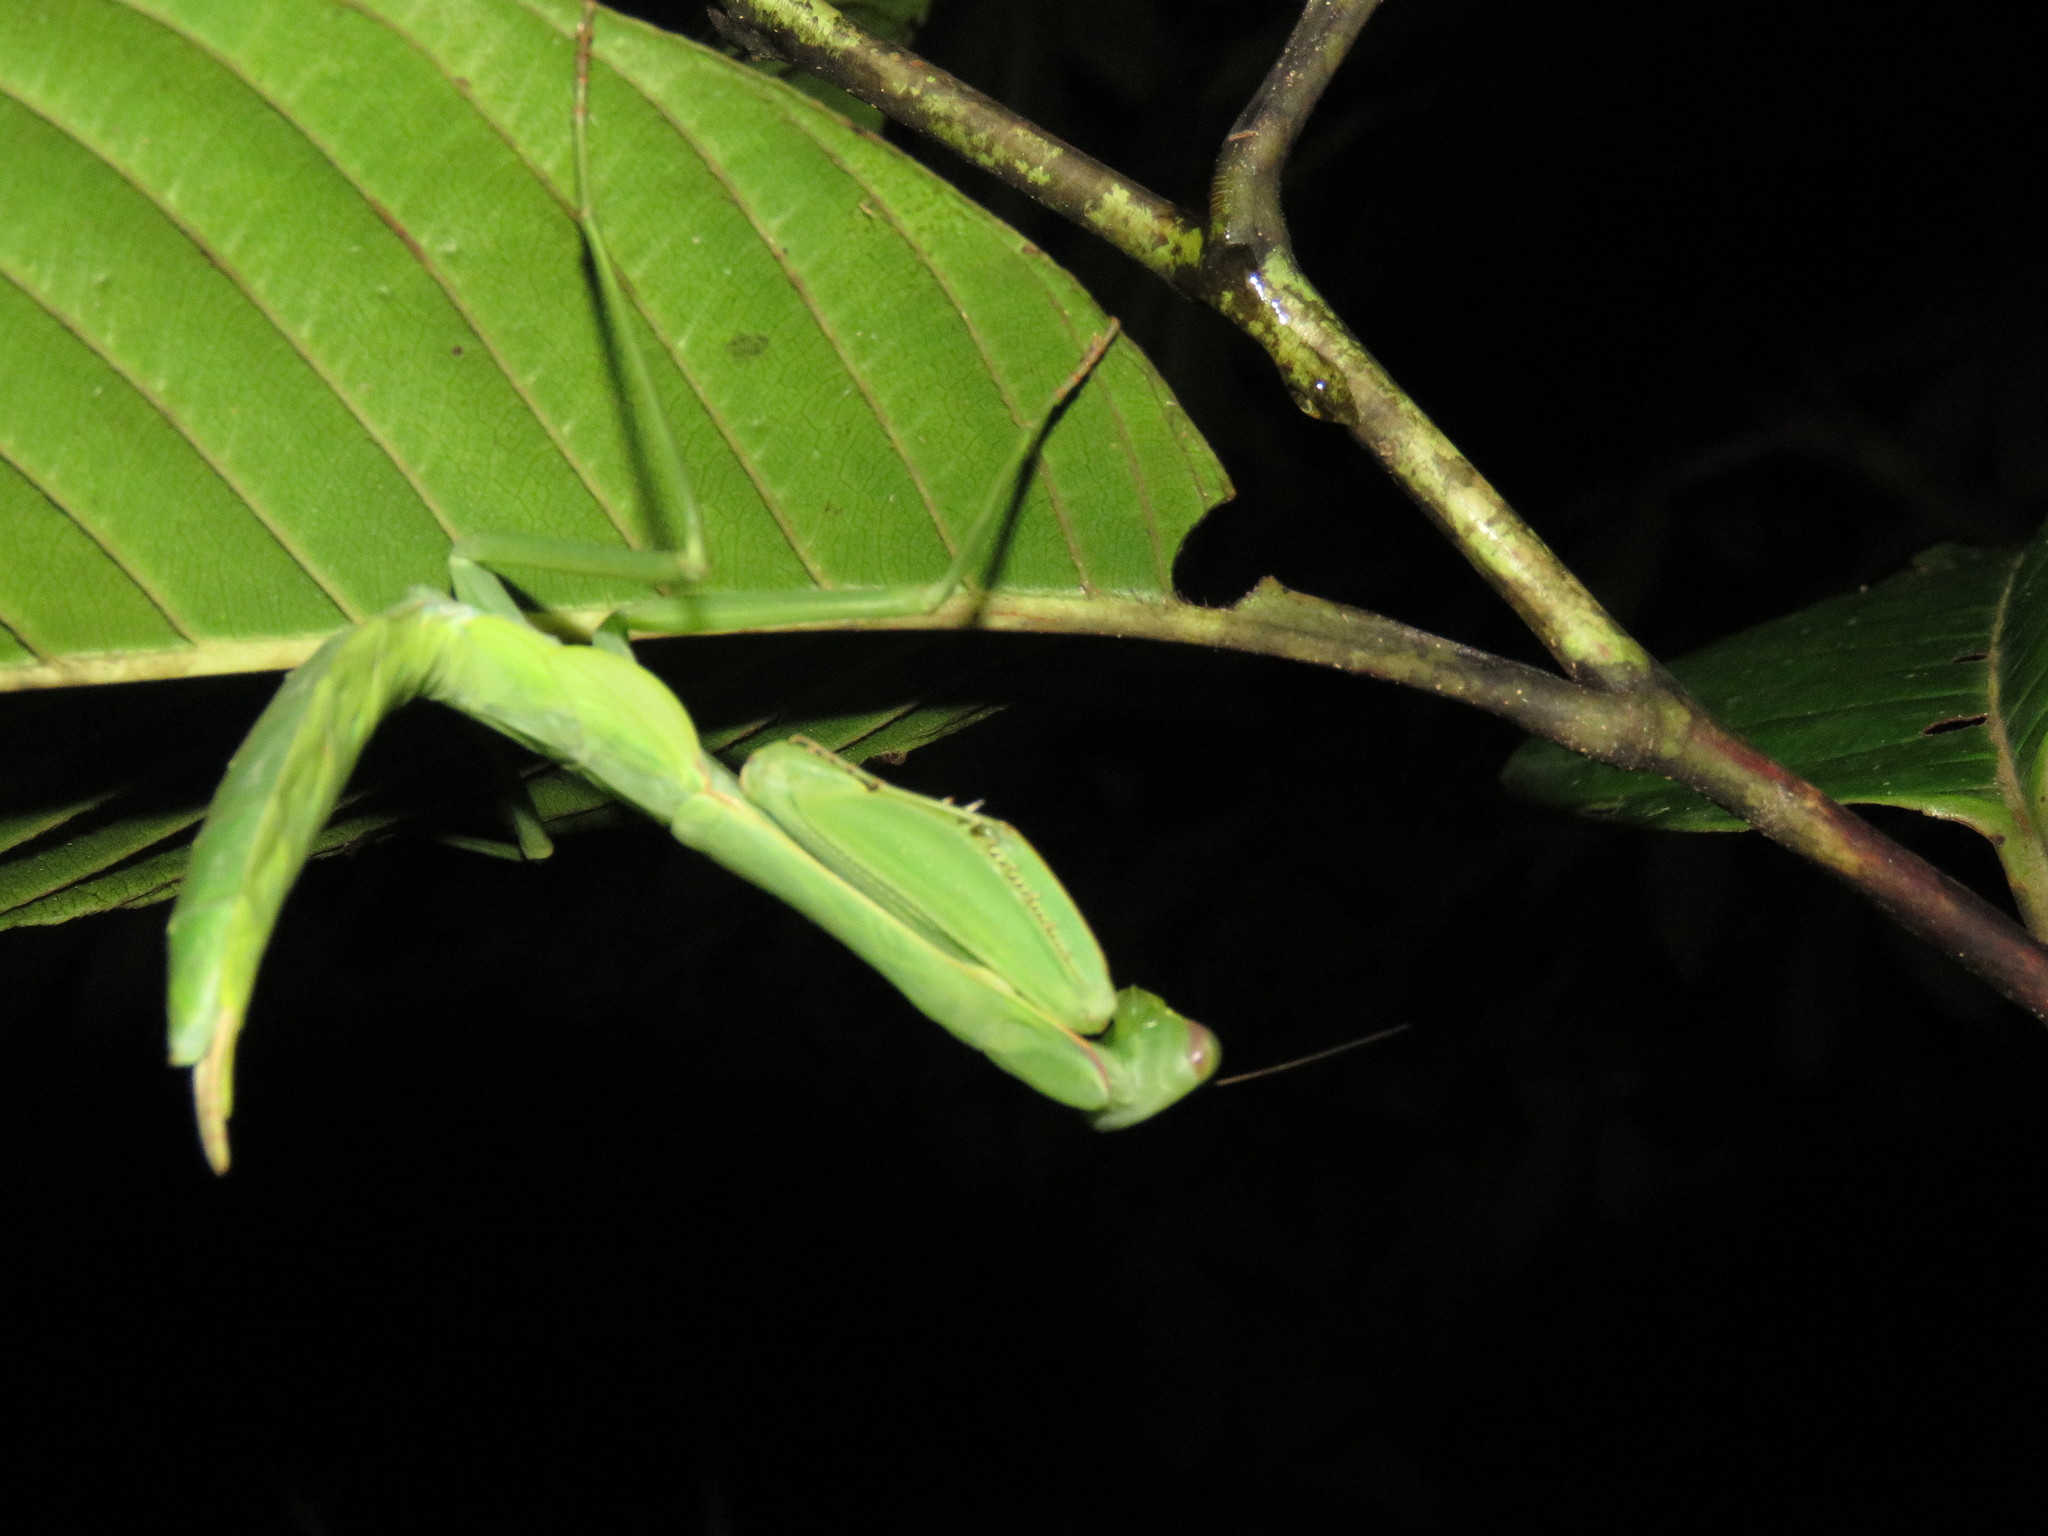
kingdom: Animalia
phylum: Arthropoda
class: Insecta
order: Mantodea
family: Photinaidae
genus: Macromantis
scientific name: Macromantis hyalina
